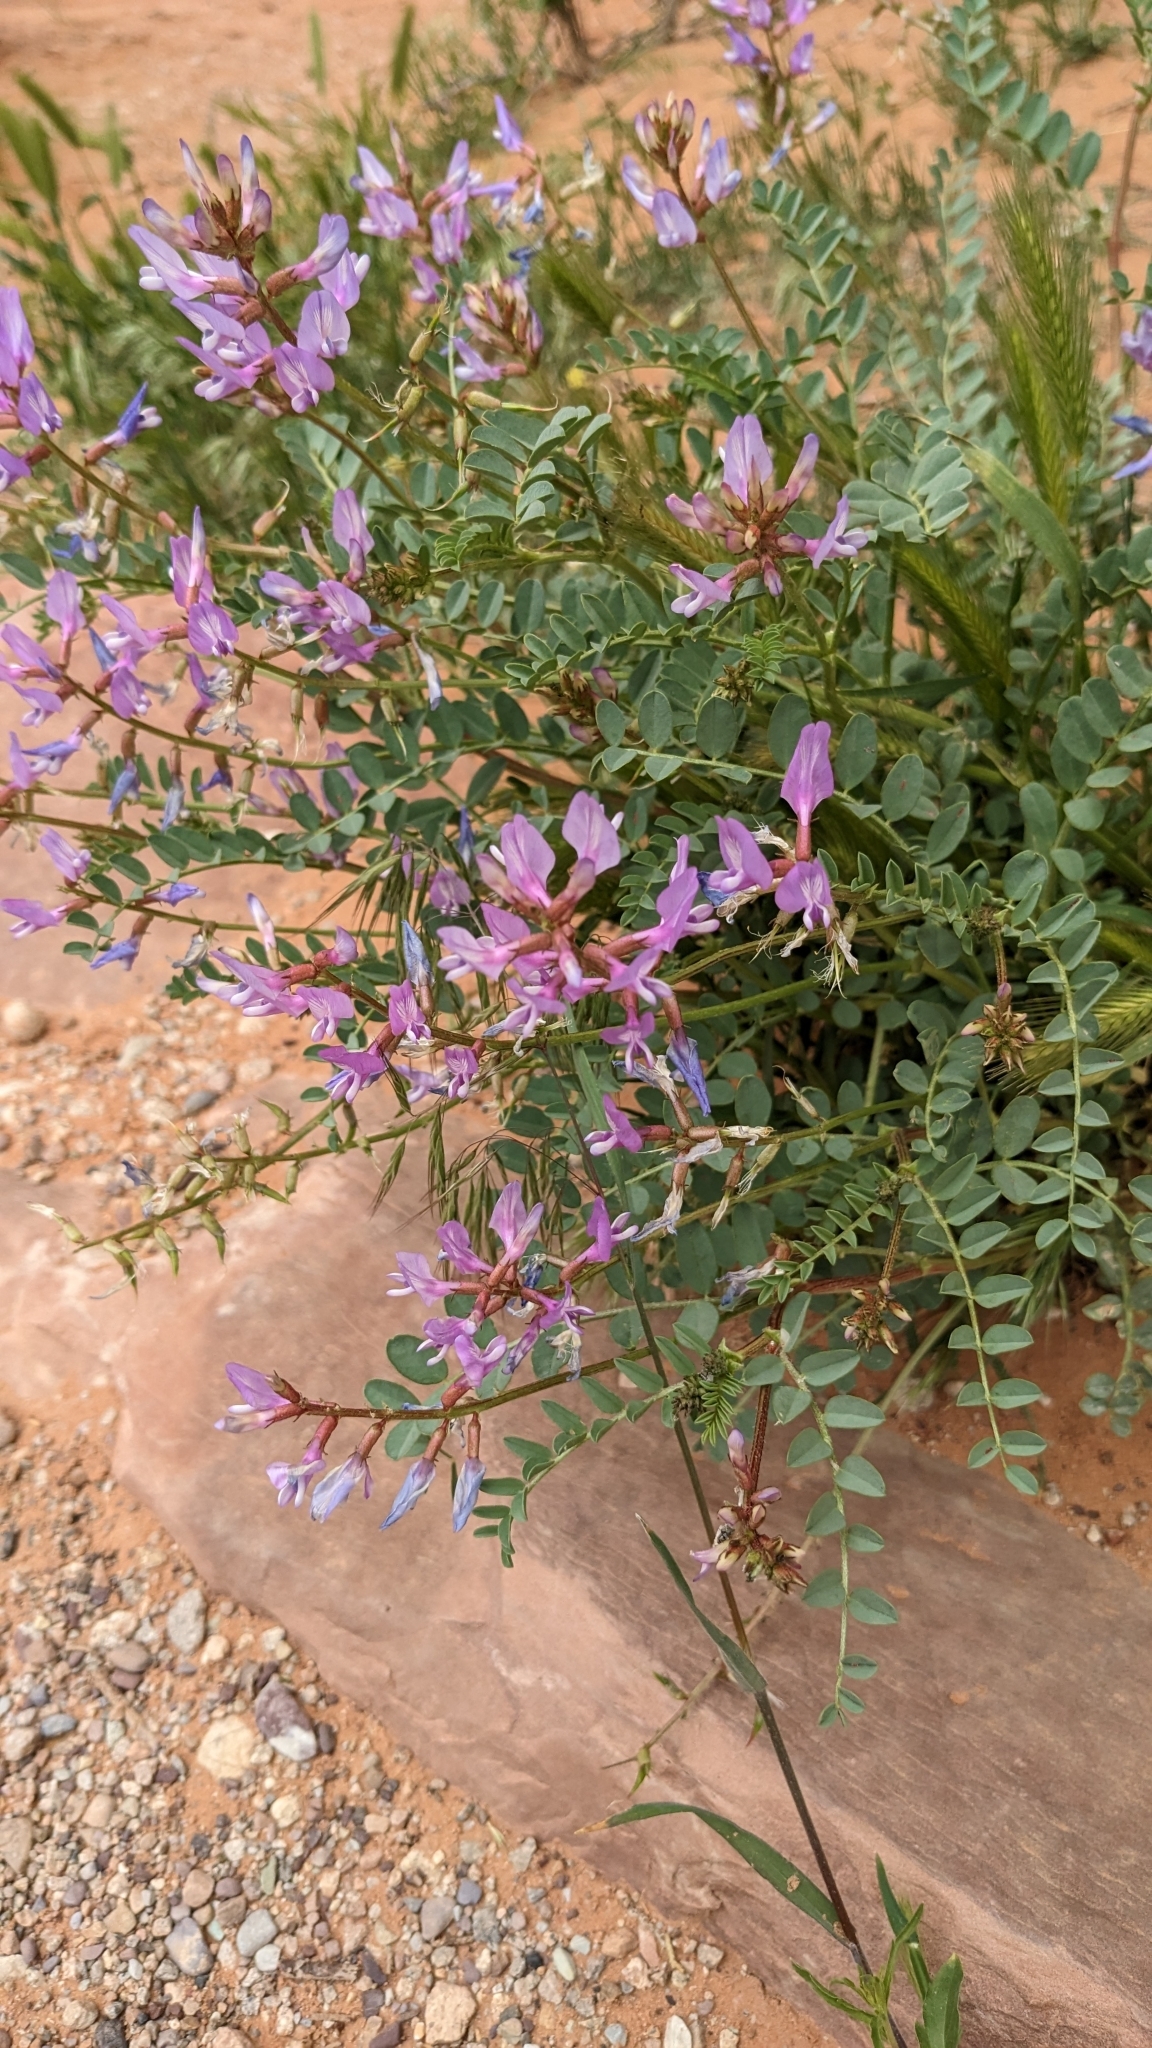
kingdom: Plantae
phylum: Tracheophyta
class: Magnoliopsida
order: Fabales
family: Fabaceae
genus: Astragalus
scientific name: Astragalus preussii
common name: Preuss's milk-vetch
